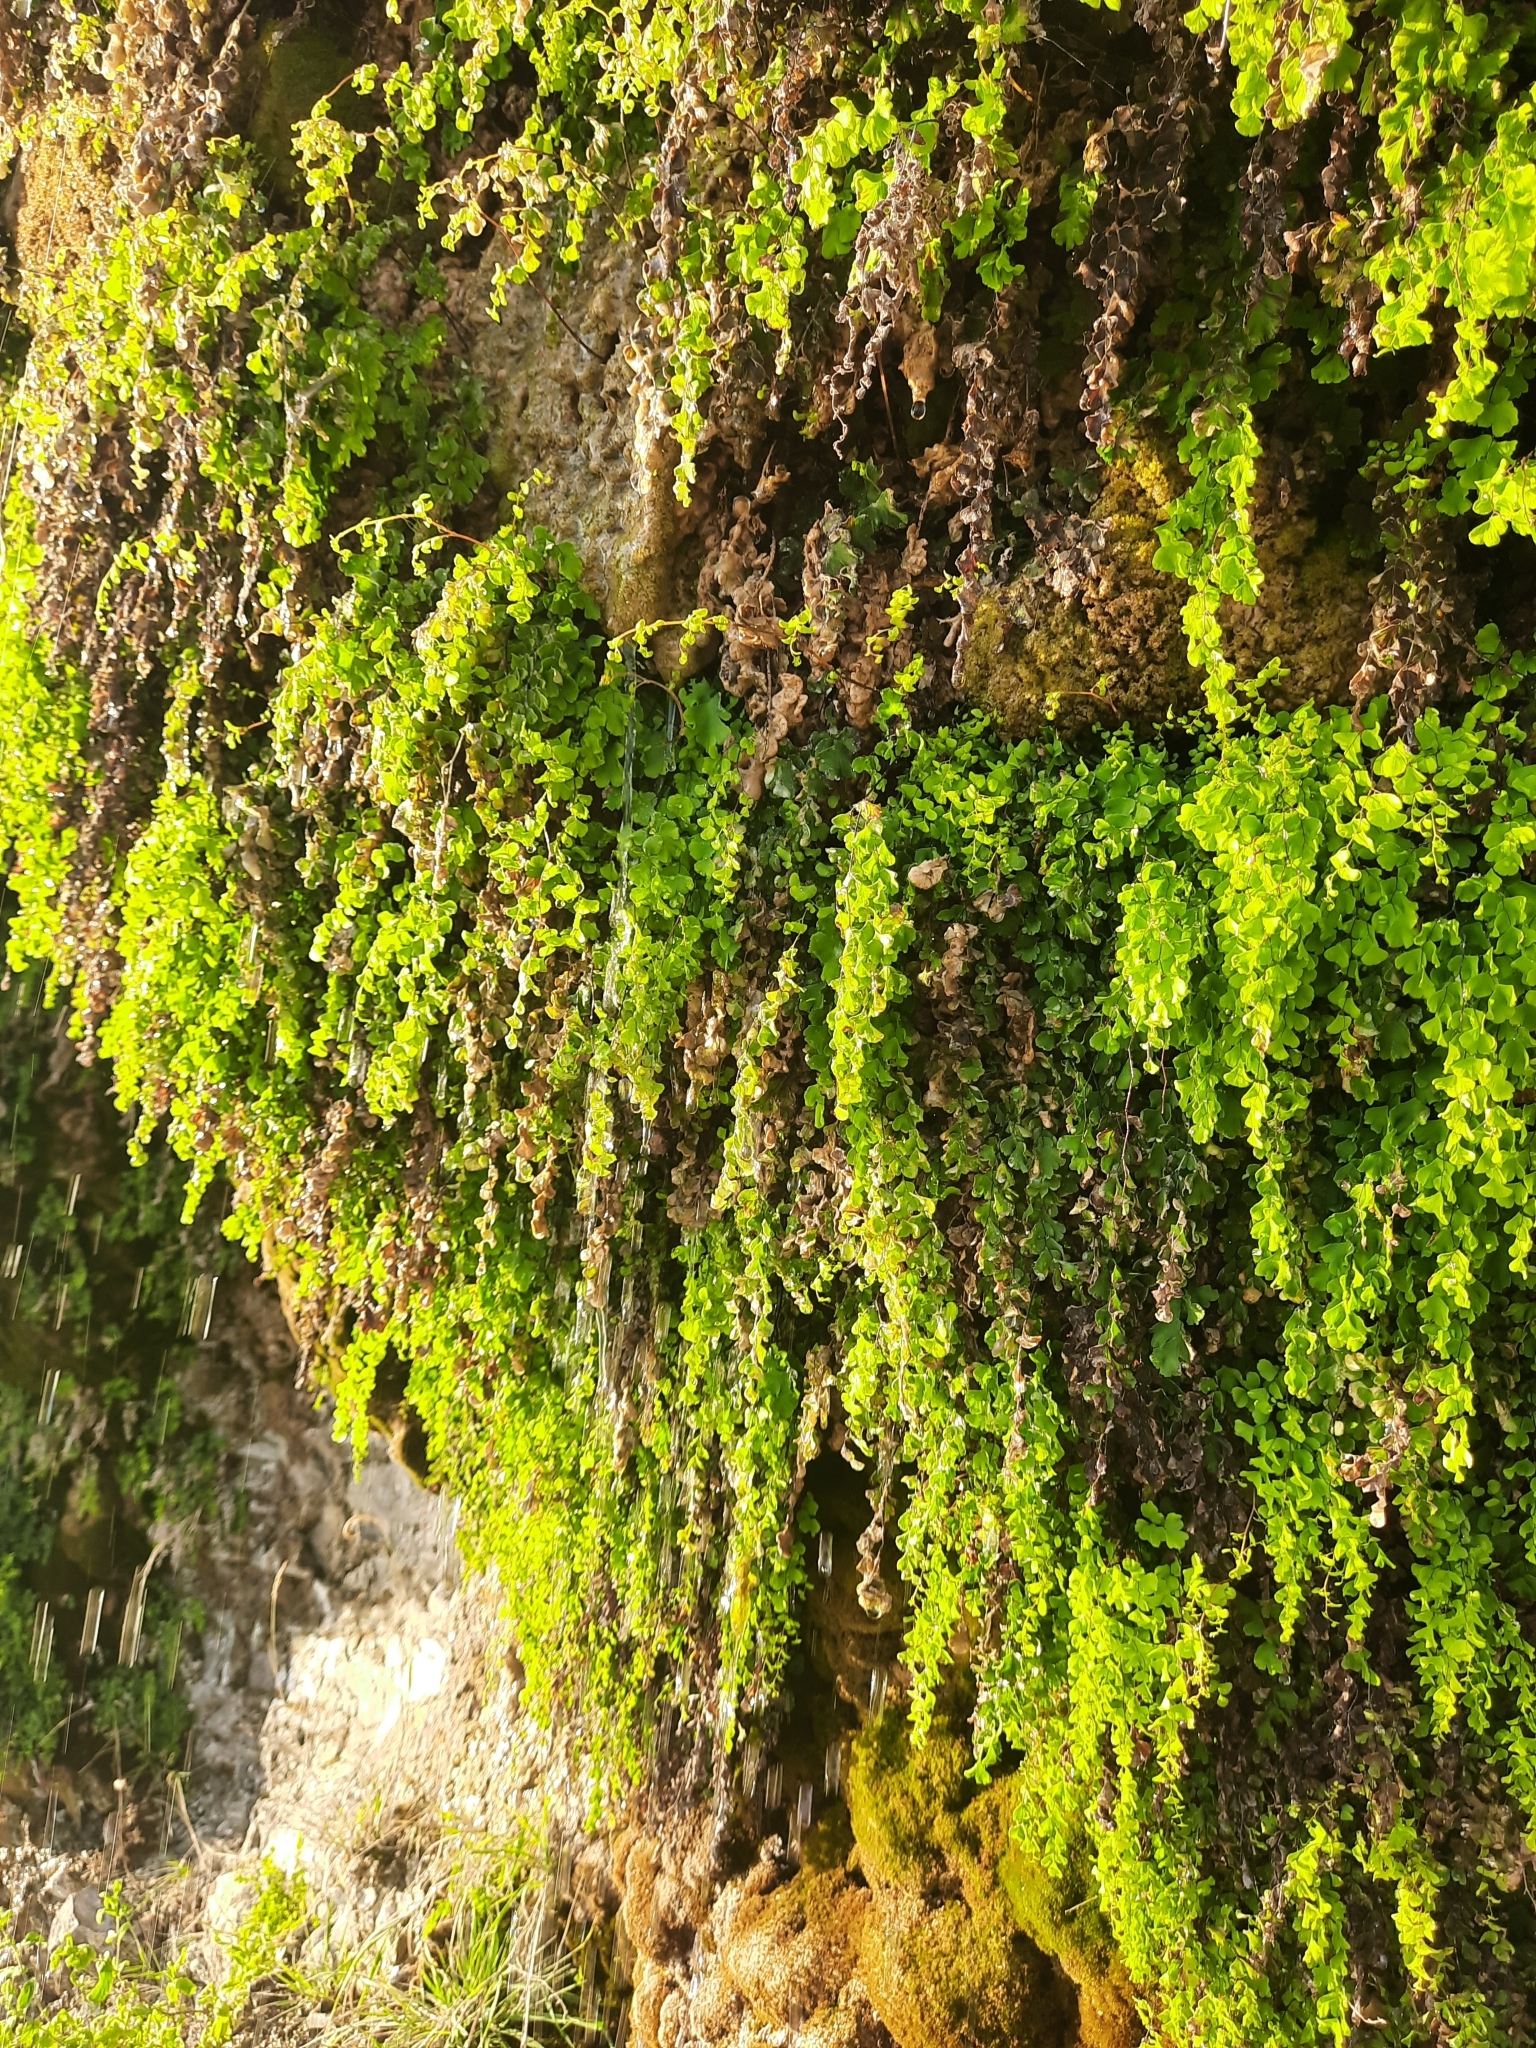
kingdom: Plantae
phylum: Tracheophyta
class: Polypodiopsida
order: Polypodiales
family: Pteridaceae
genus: Adiantum
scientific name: Adiantum capillus-veneris
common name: Maidenhair fern
